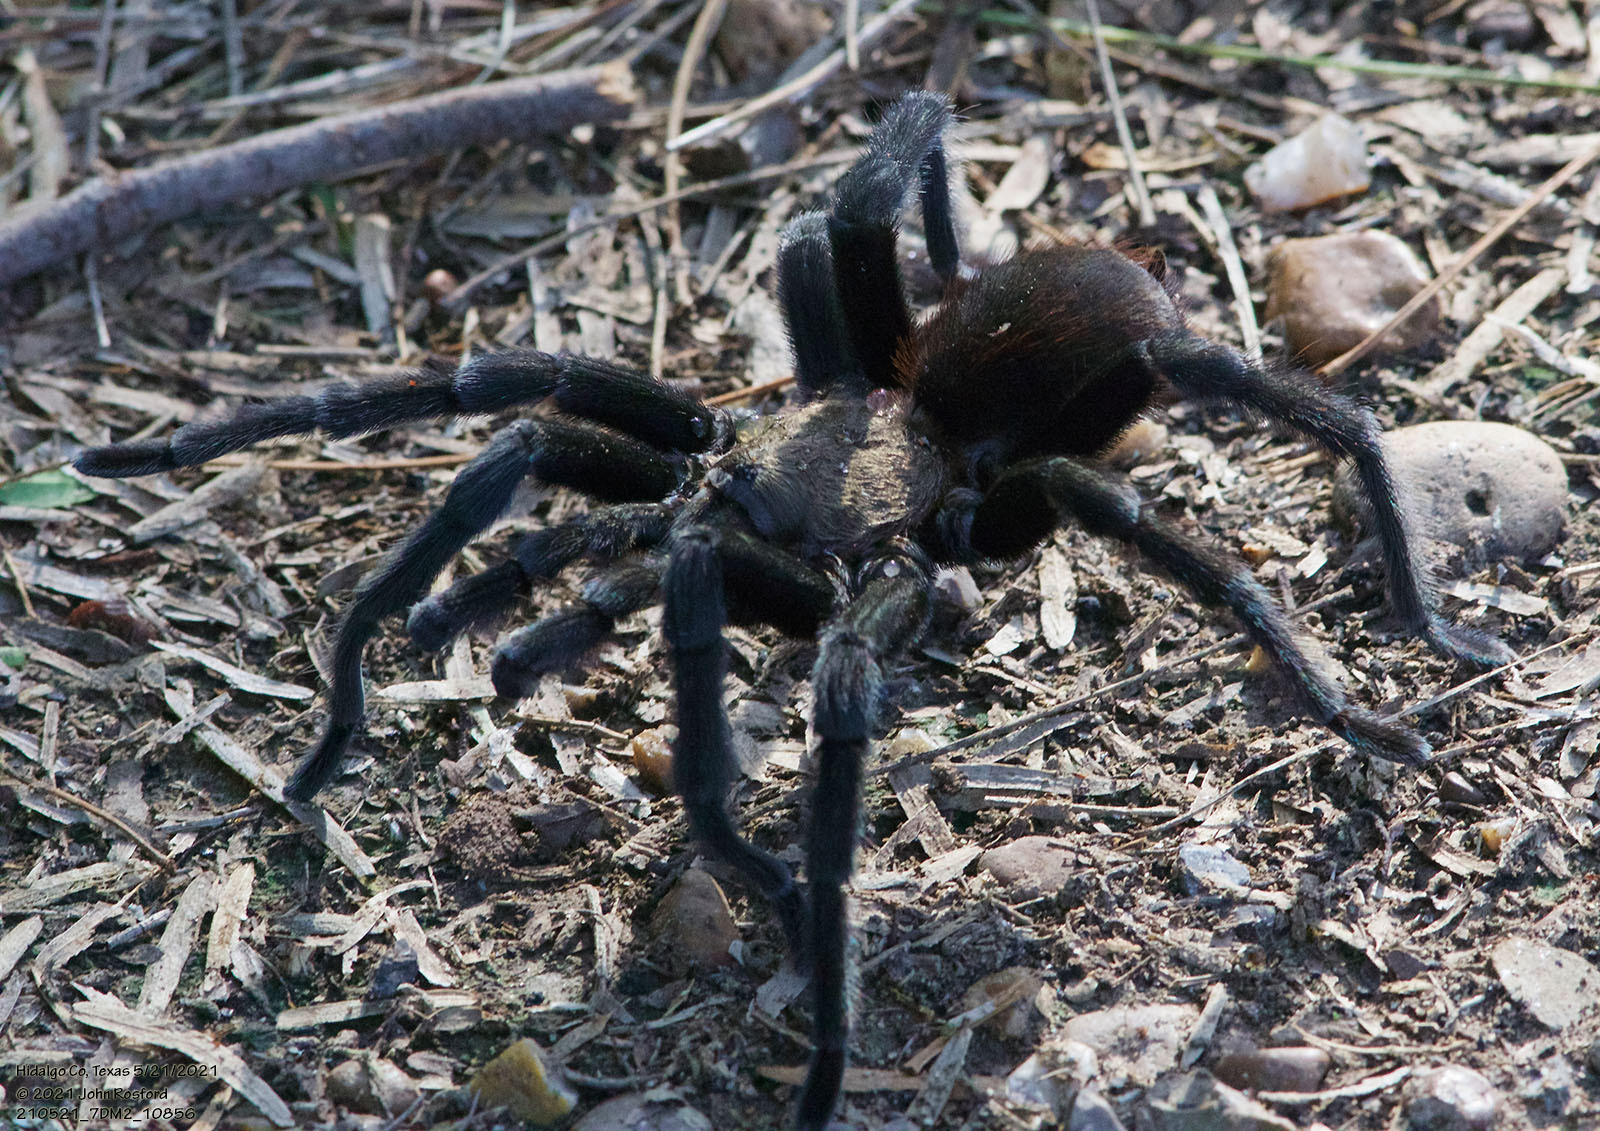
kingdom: Animalia
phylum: Arthropoda
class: Arachnida
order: Araneae
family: Theraphosidae
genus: Aphonopelma
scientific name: Aphonopelma anax
